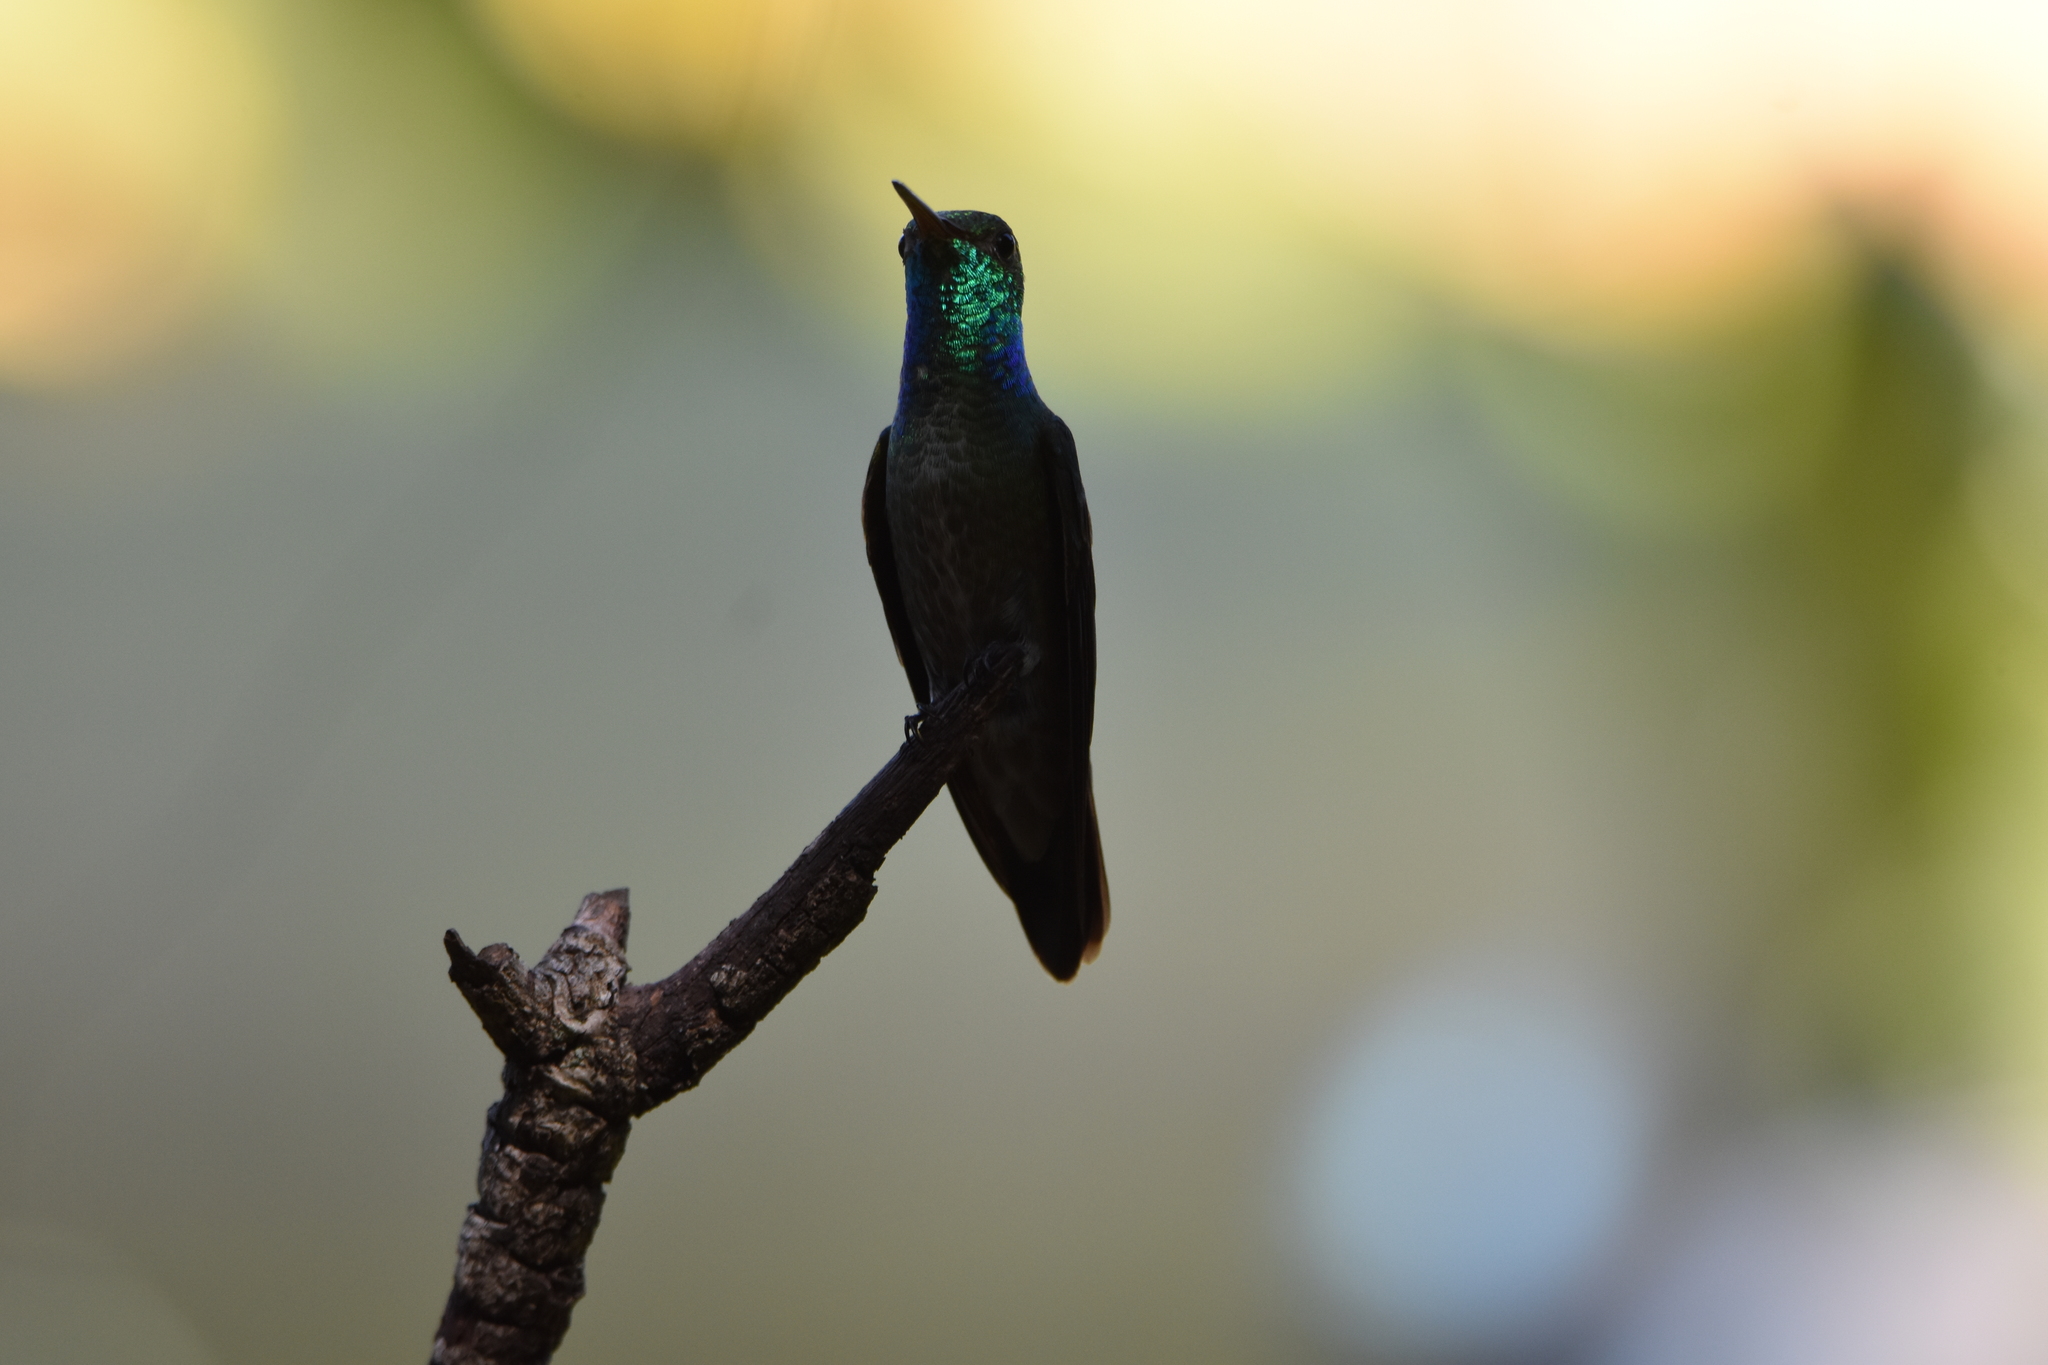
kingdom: Animalia
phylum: Chordata
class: Aves
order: Apodiformes
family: Trochilidae
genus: Chrysuronia
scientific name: Chrysuronia versicolor
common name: Versicolored emerald
